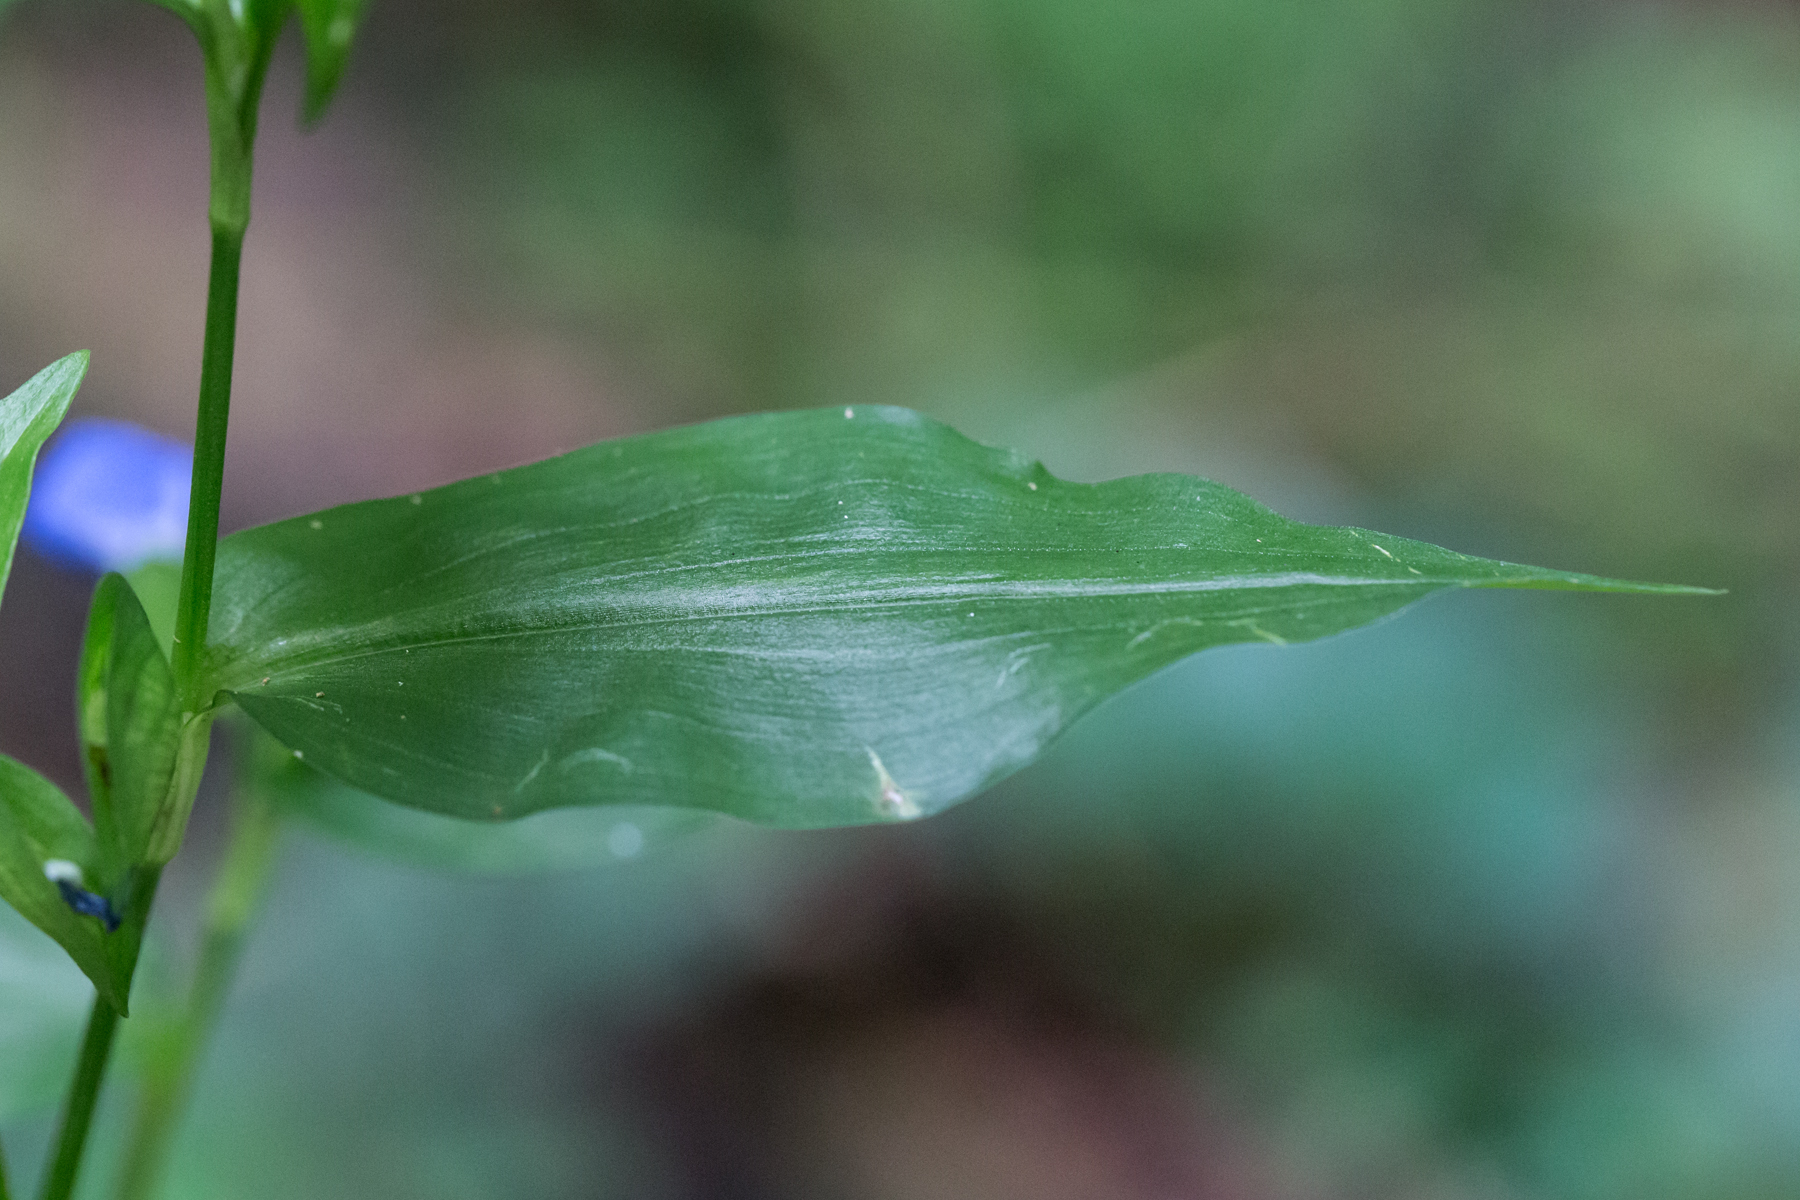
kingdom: Plantae
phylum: Tracheophyta
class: Liliopsida
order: Commelinales
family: Commelinaceae
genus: Commelina
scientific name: Commelina communis
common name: Asiatic dayflower
